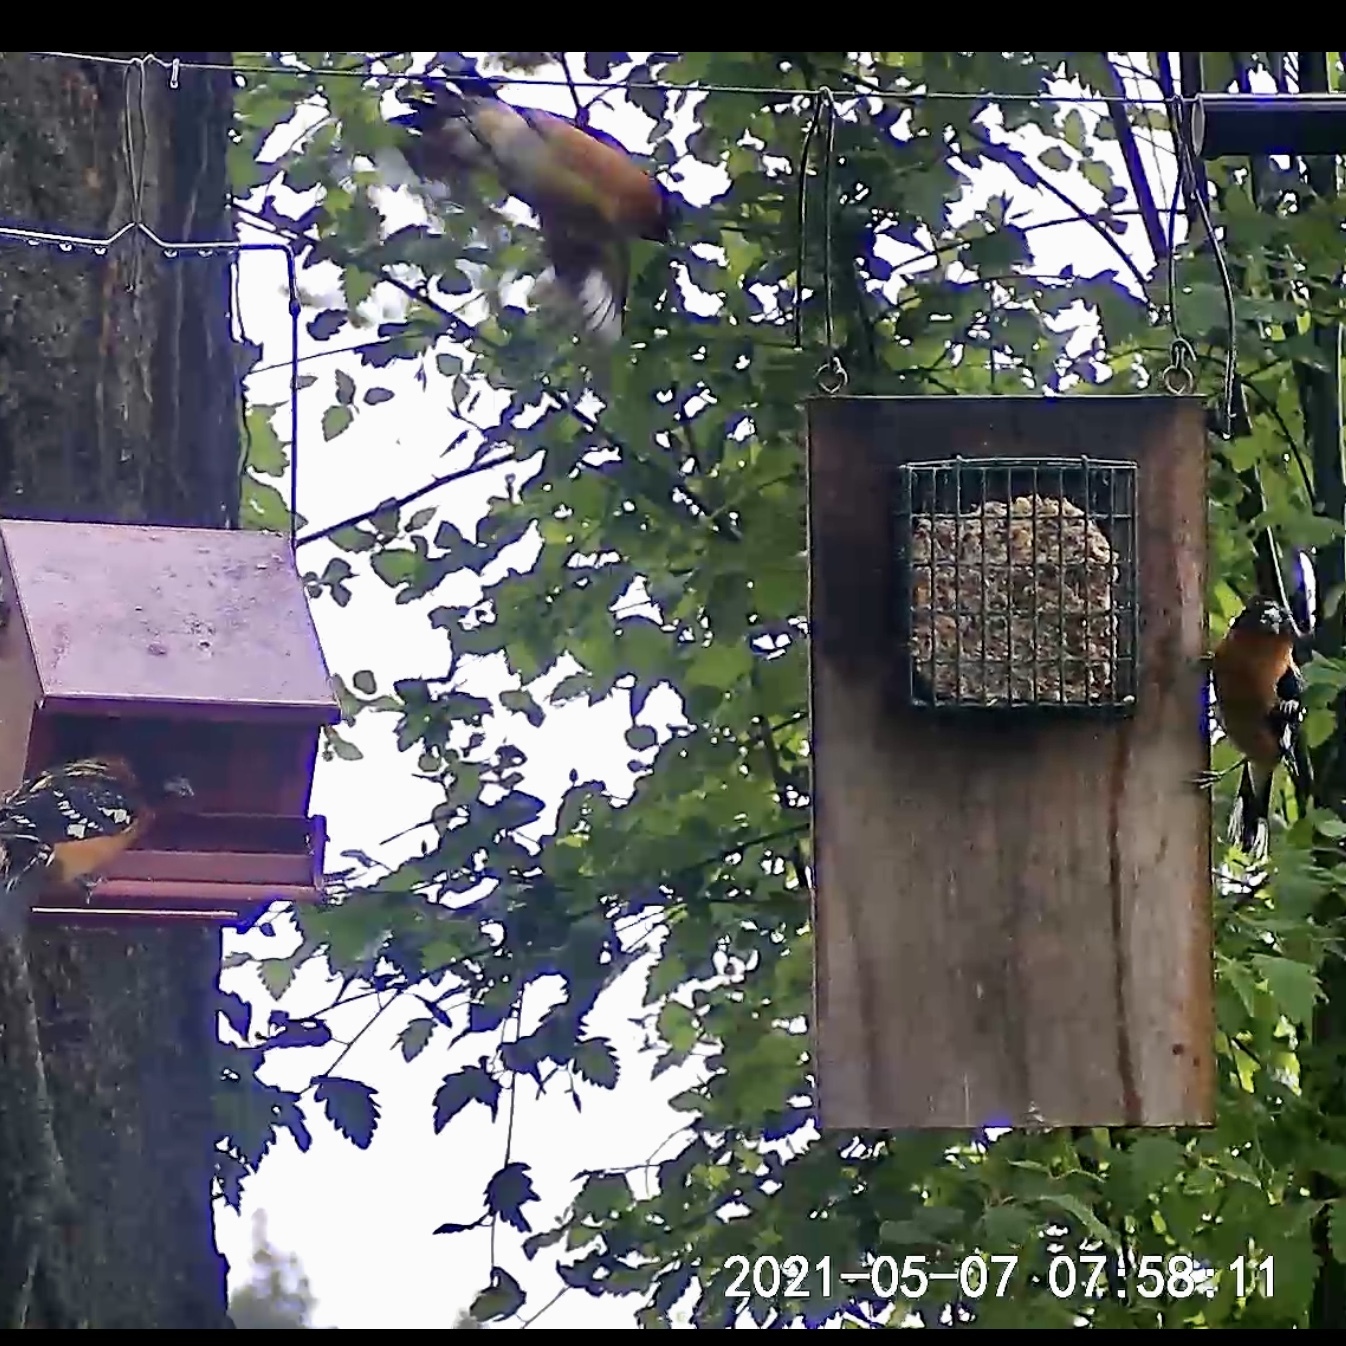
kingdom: Animalia
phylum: Chordata
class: Aves
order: Passeriformes
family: Cardinalidae
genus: Pheucticus
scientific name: Pheucticus melanocephalus
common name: Black-headed grosbeak
